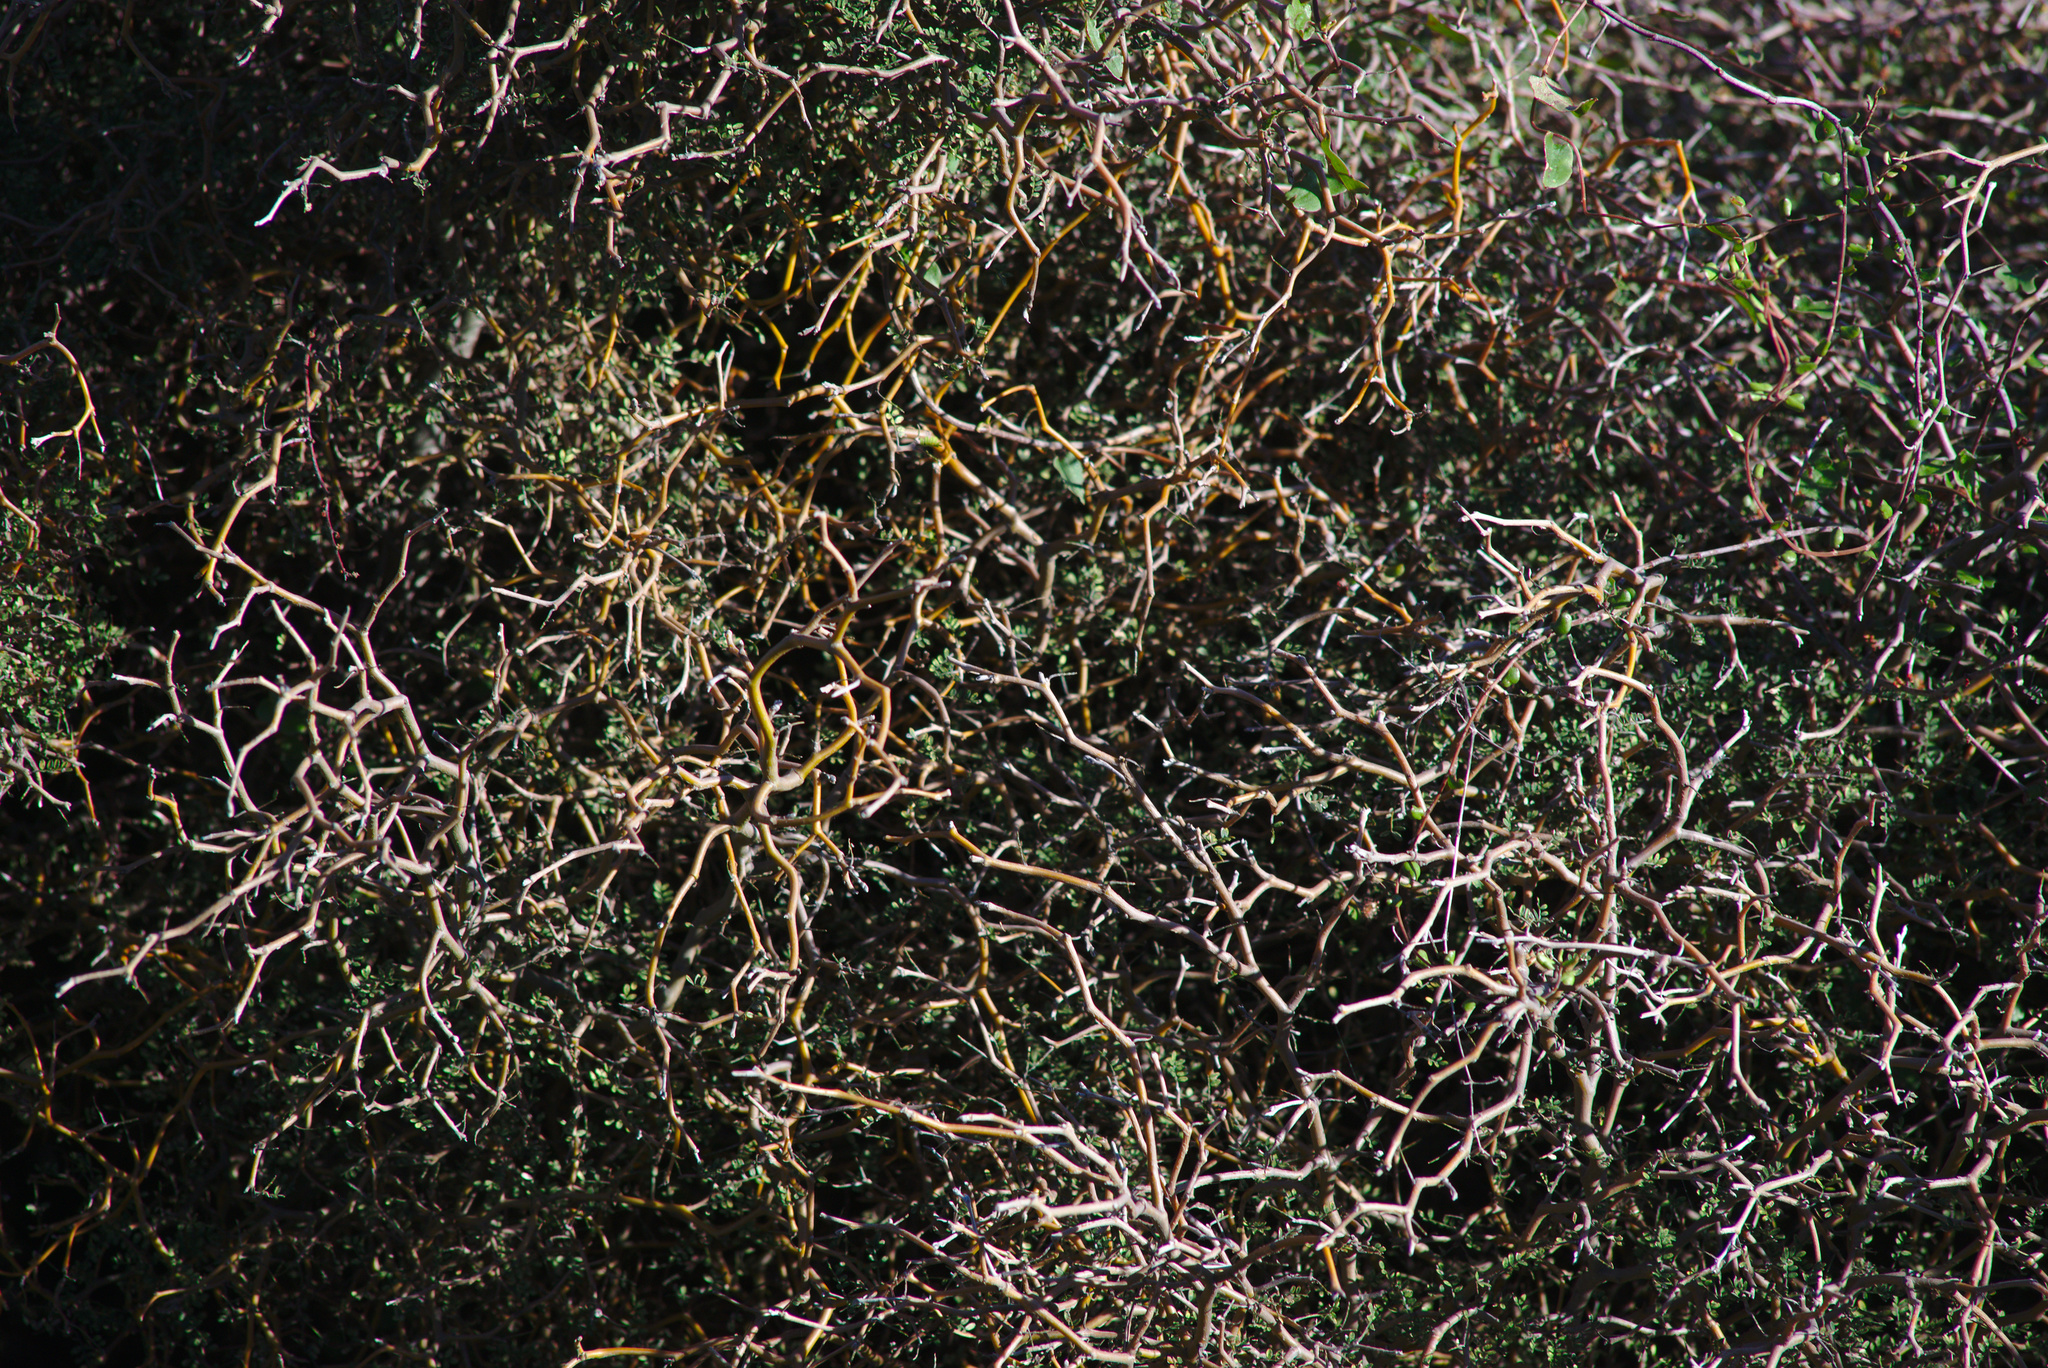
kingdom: Plantae
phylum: Tracheophyta
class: Magnoliopsida
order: Fabales
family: Fabaceae
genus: Sophora
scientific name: Sophora prostrata
